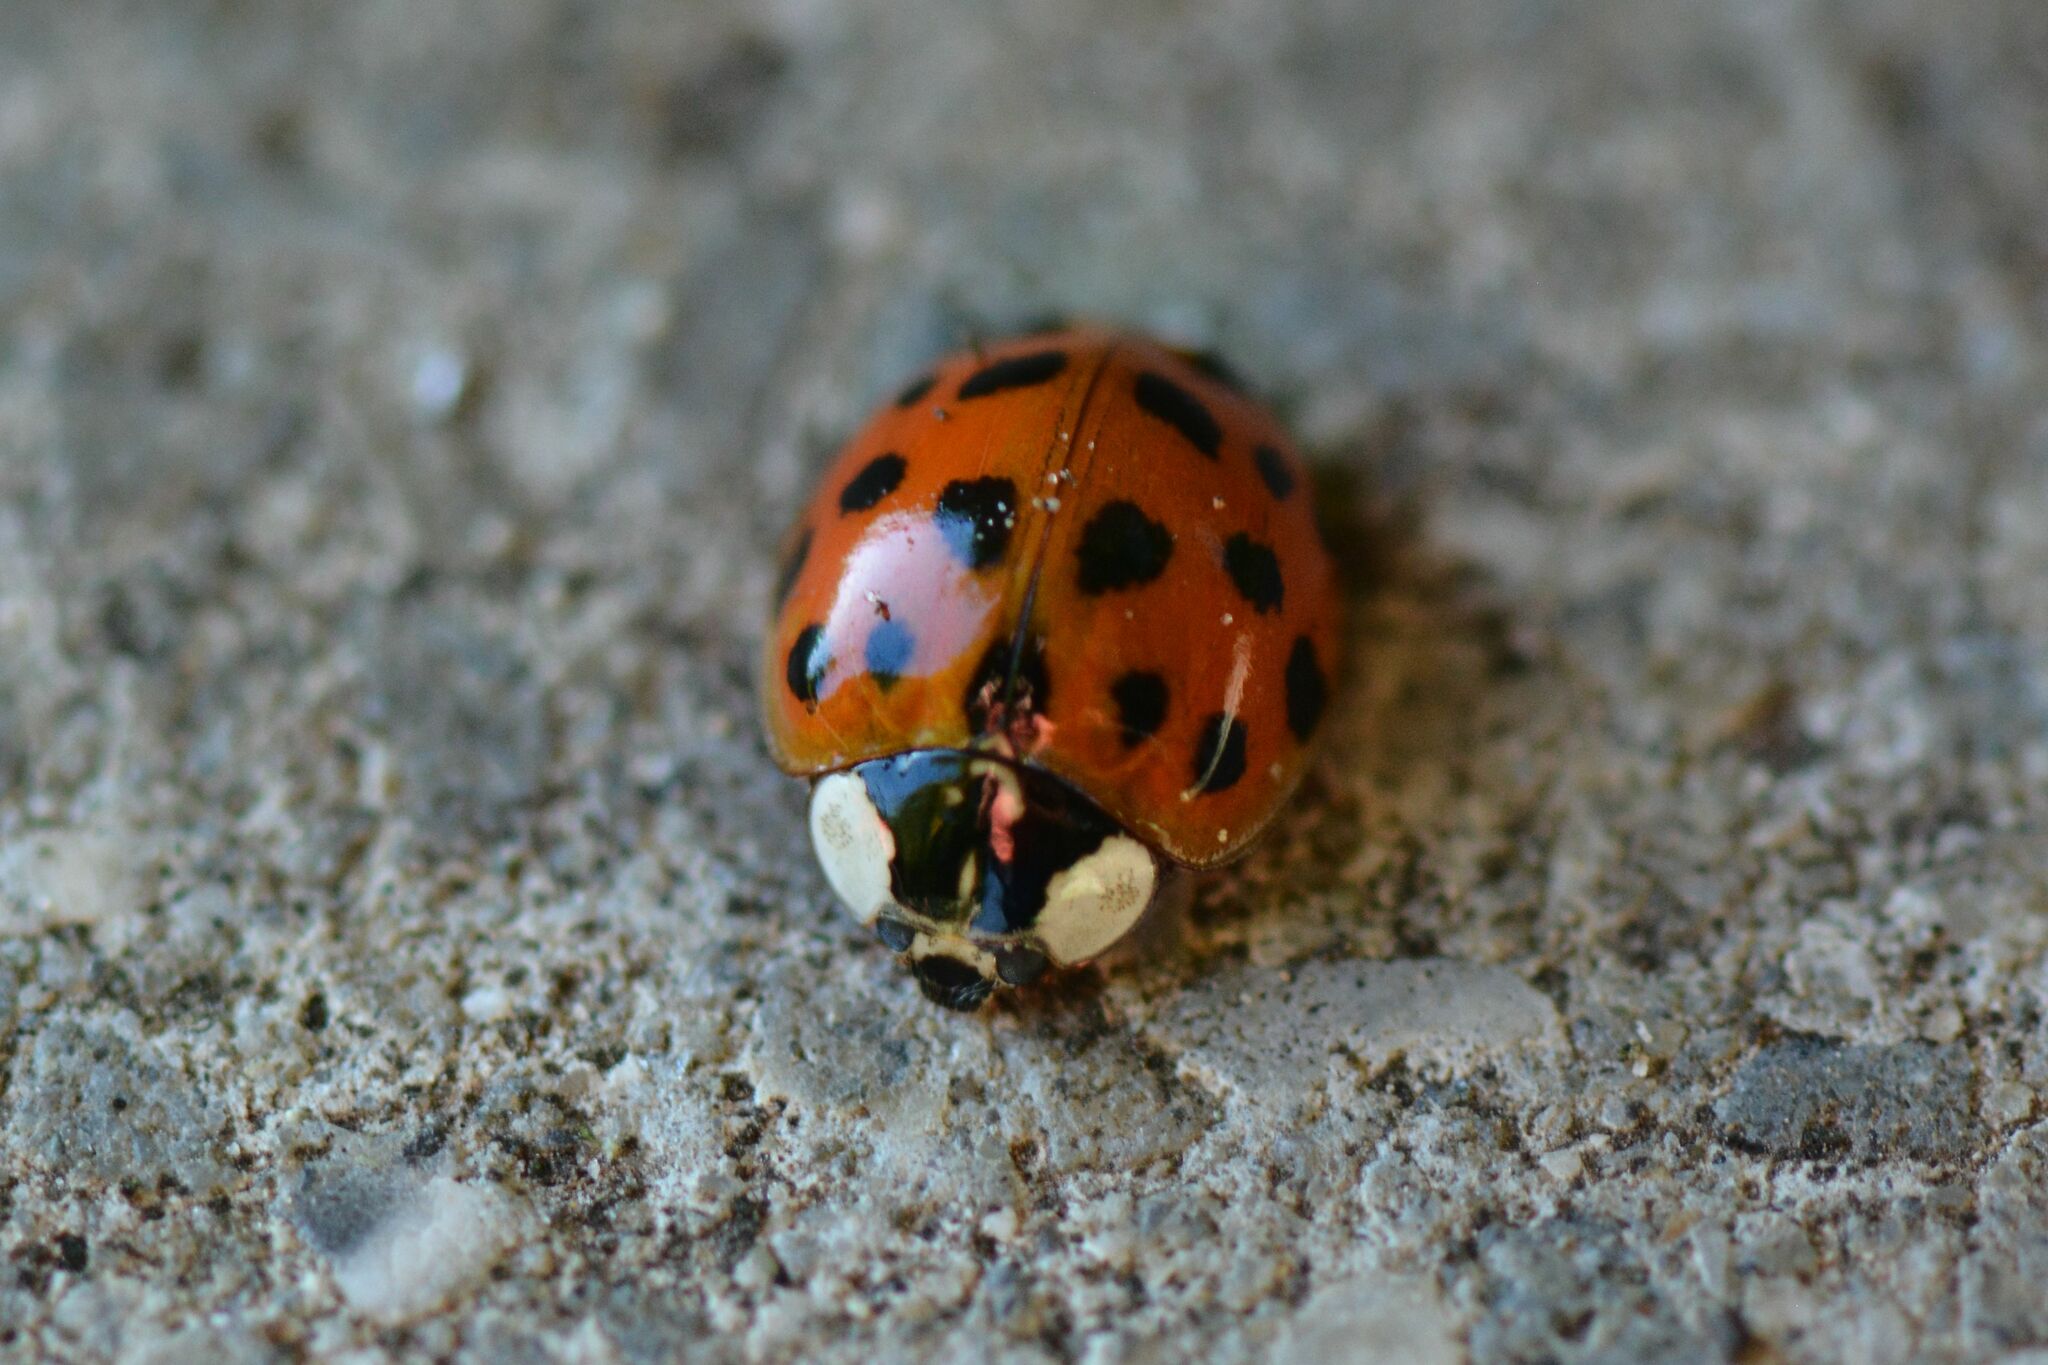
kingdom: Animalia
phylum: Arthropoda
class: Insecta
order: Coleoptera
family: Coccinellidae
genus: Harmonia
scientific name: Harmonia axyridis
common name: Harlequin ladybird
